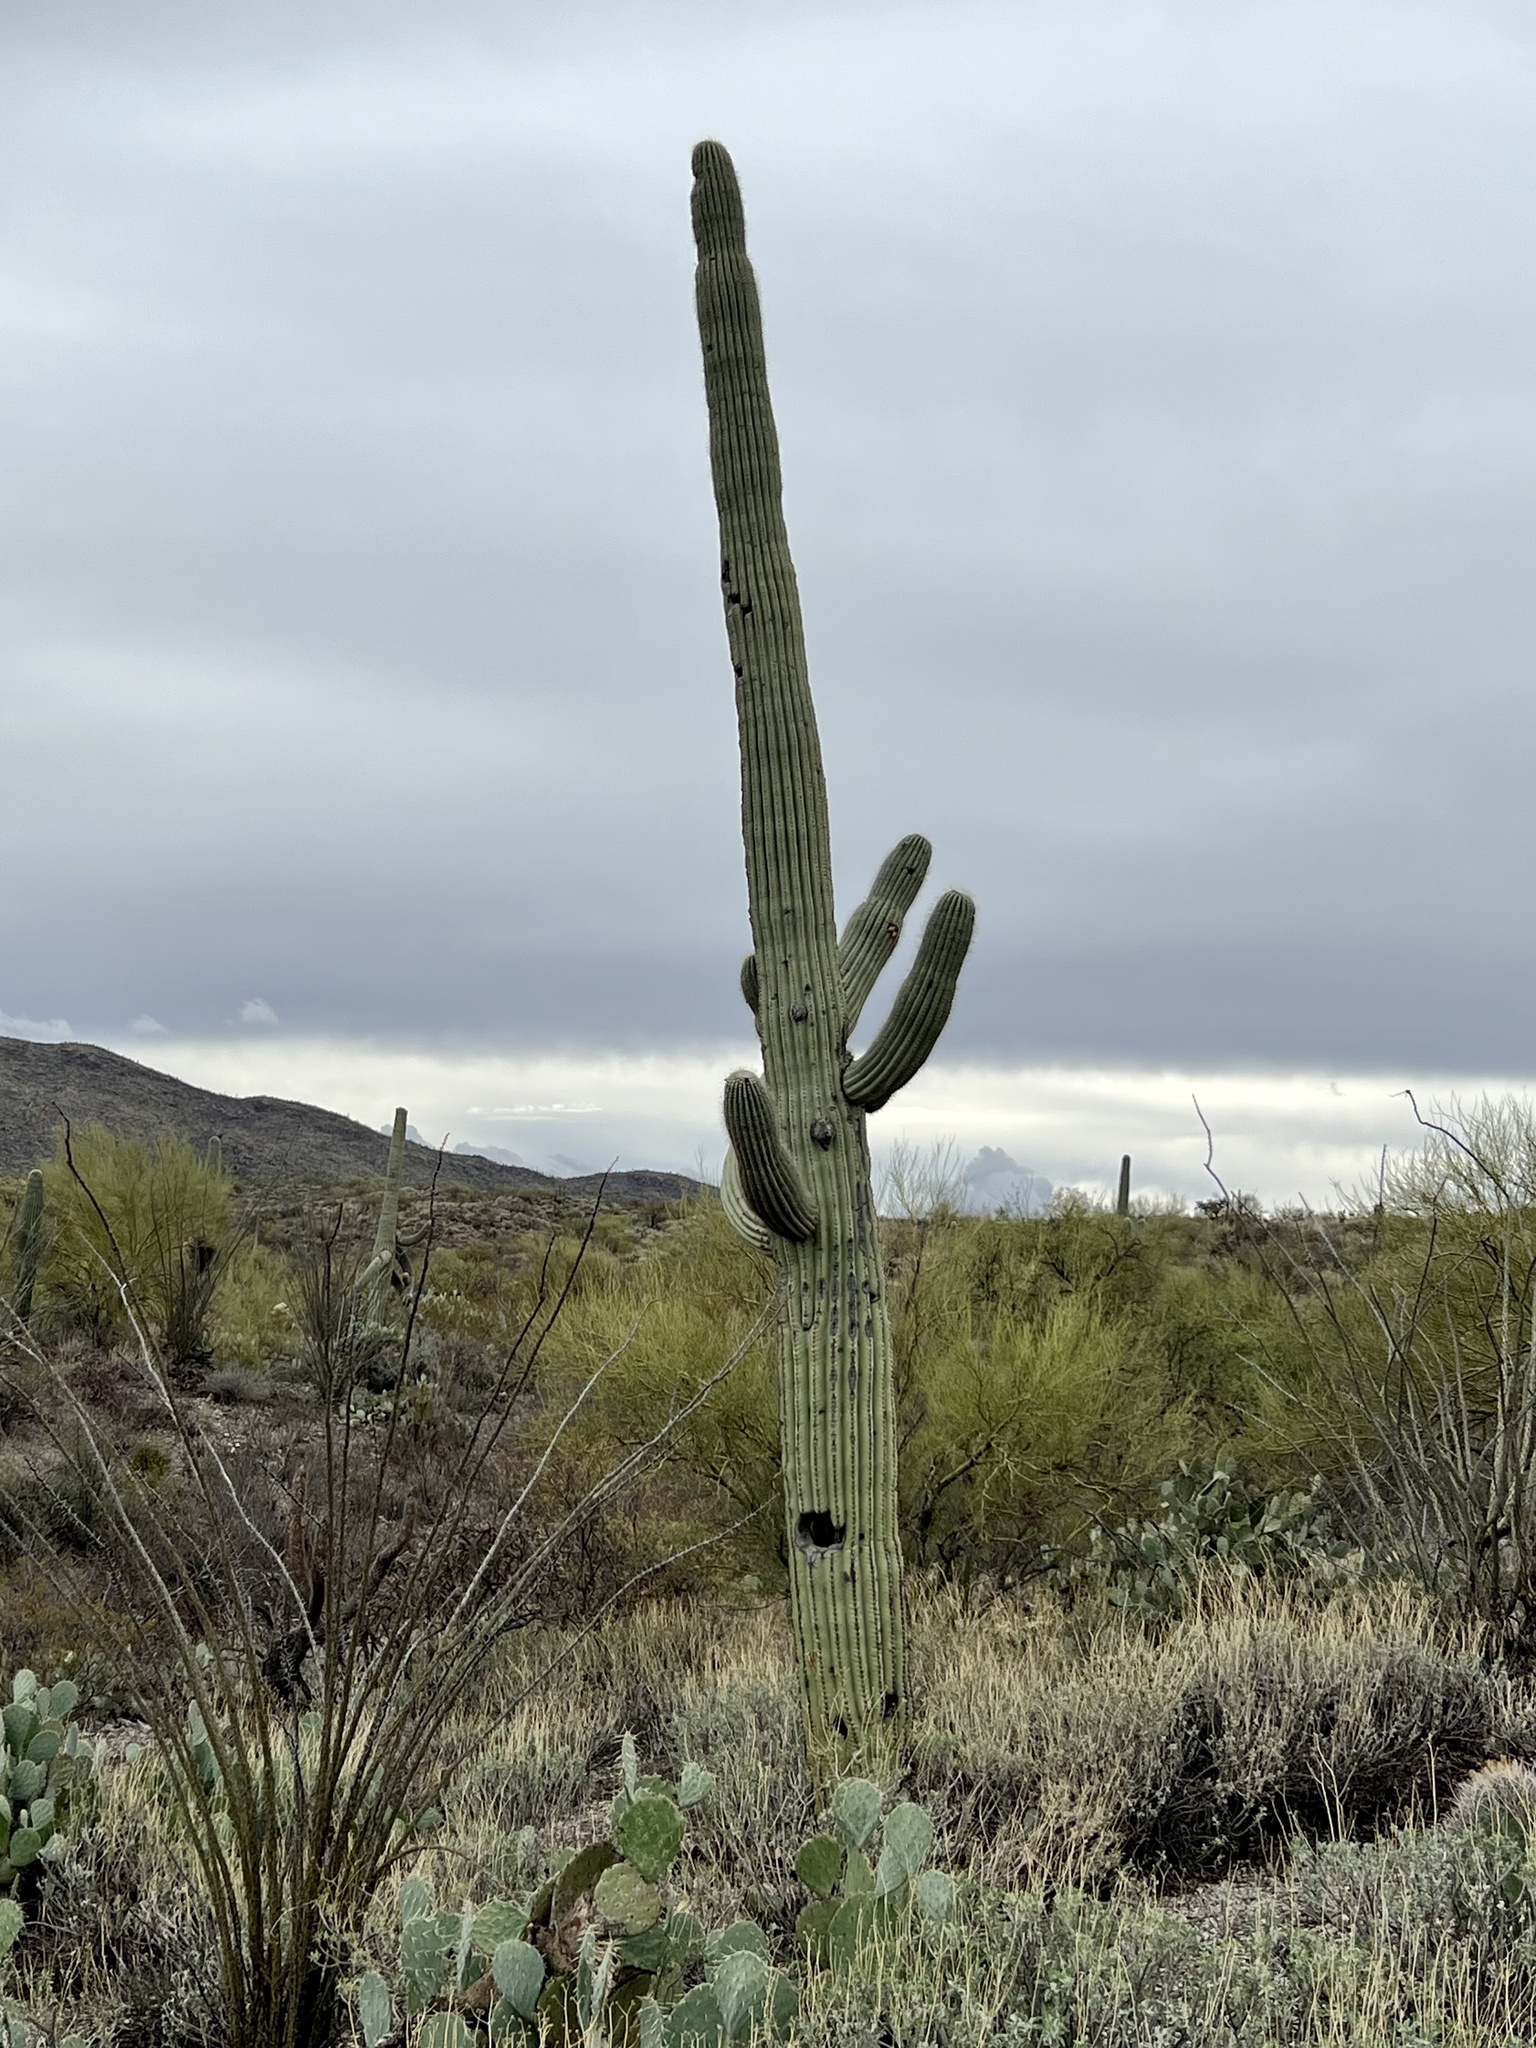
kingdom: Plantae
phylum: Tracheophyta
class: Magnoliopsida
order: Caryophyllales
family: Cactaceae
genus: Carnegiea
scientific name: Carnegiea gigantea
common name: Saguaro
